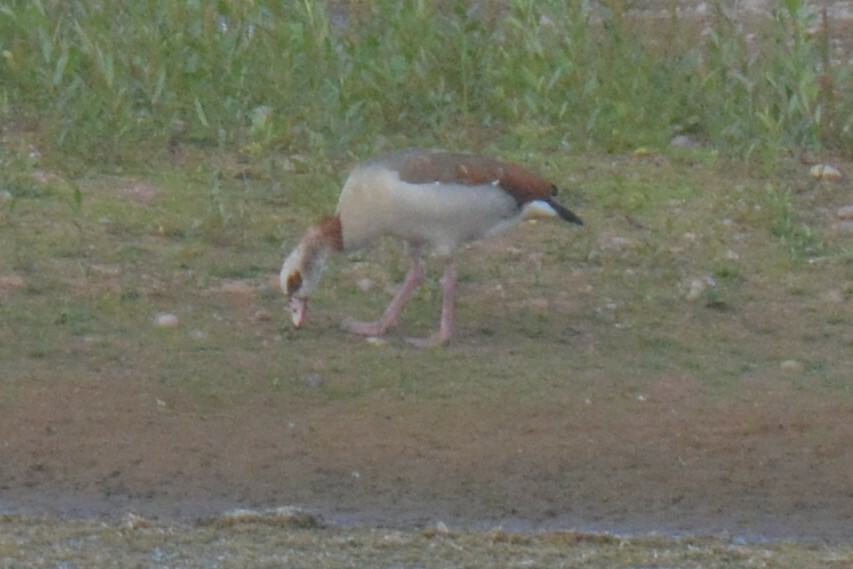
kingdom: Animalia
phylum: Chordata
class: Aves
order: Anseriformes
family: Anatidae
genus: Alopochen
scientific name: Alopochen aegyptiaca
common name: Egyptian goose
